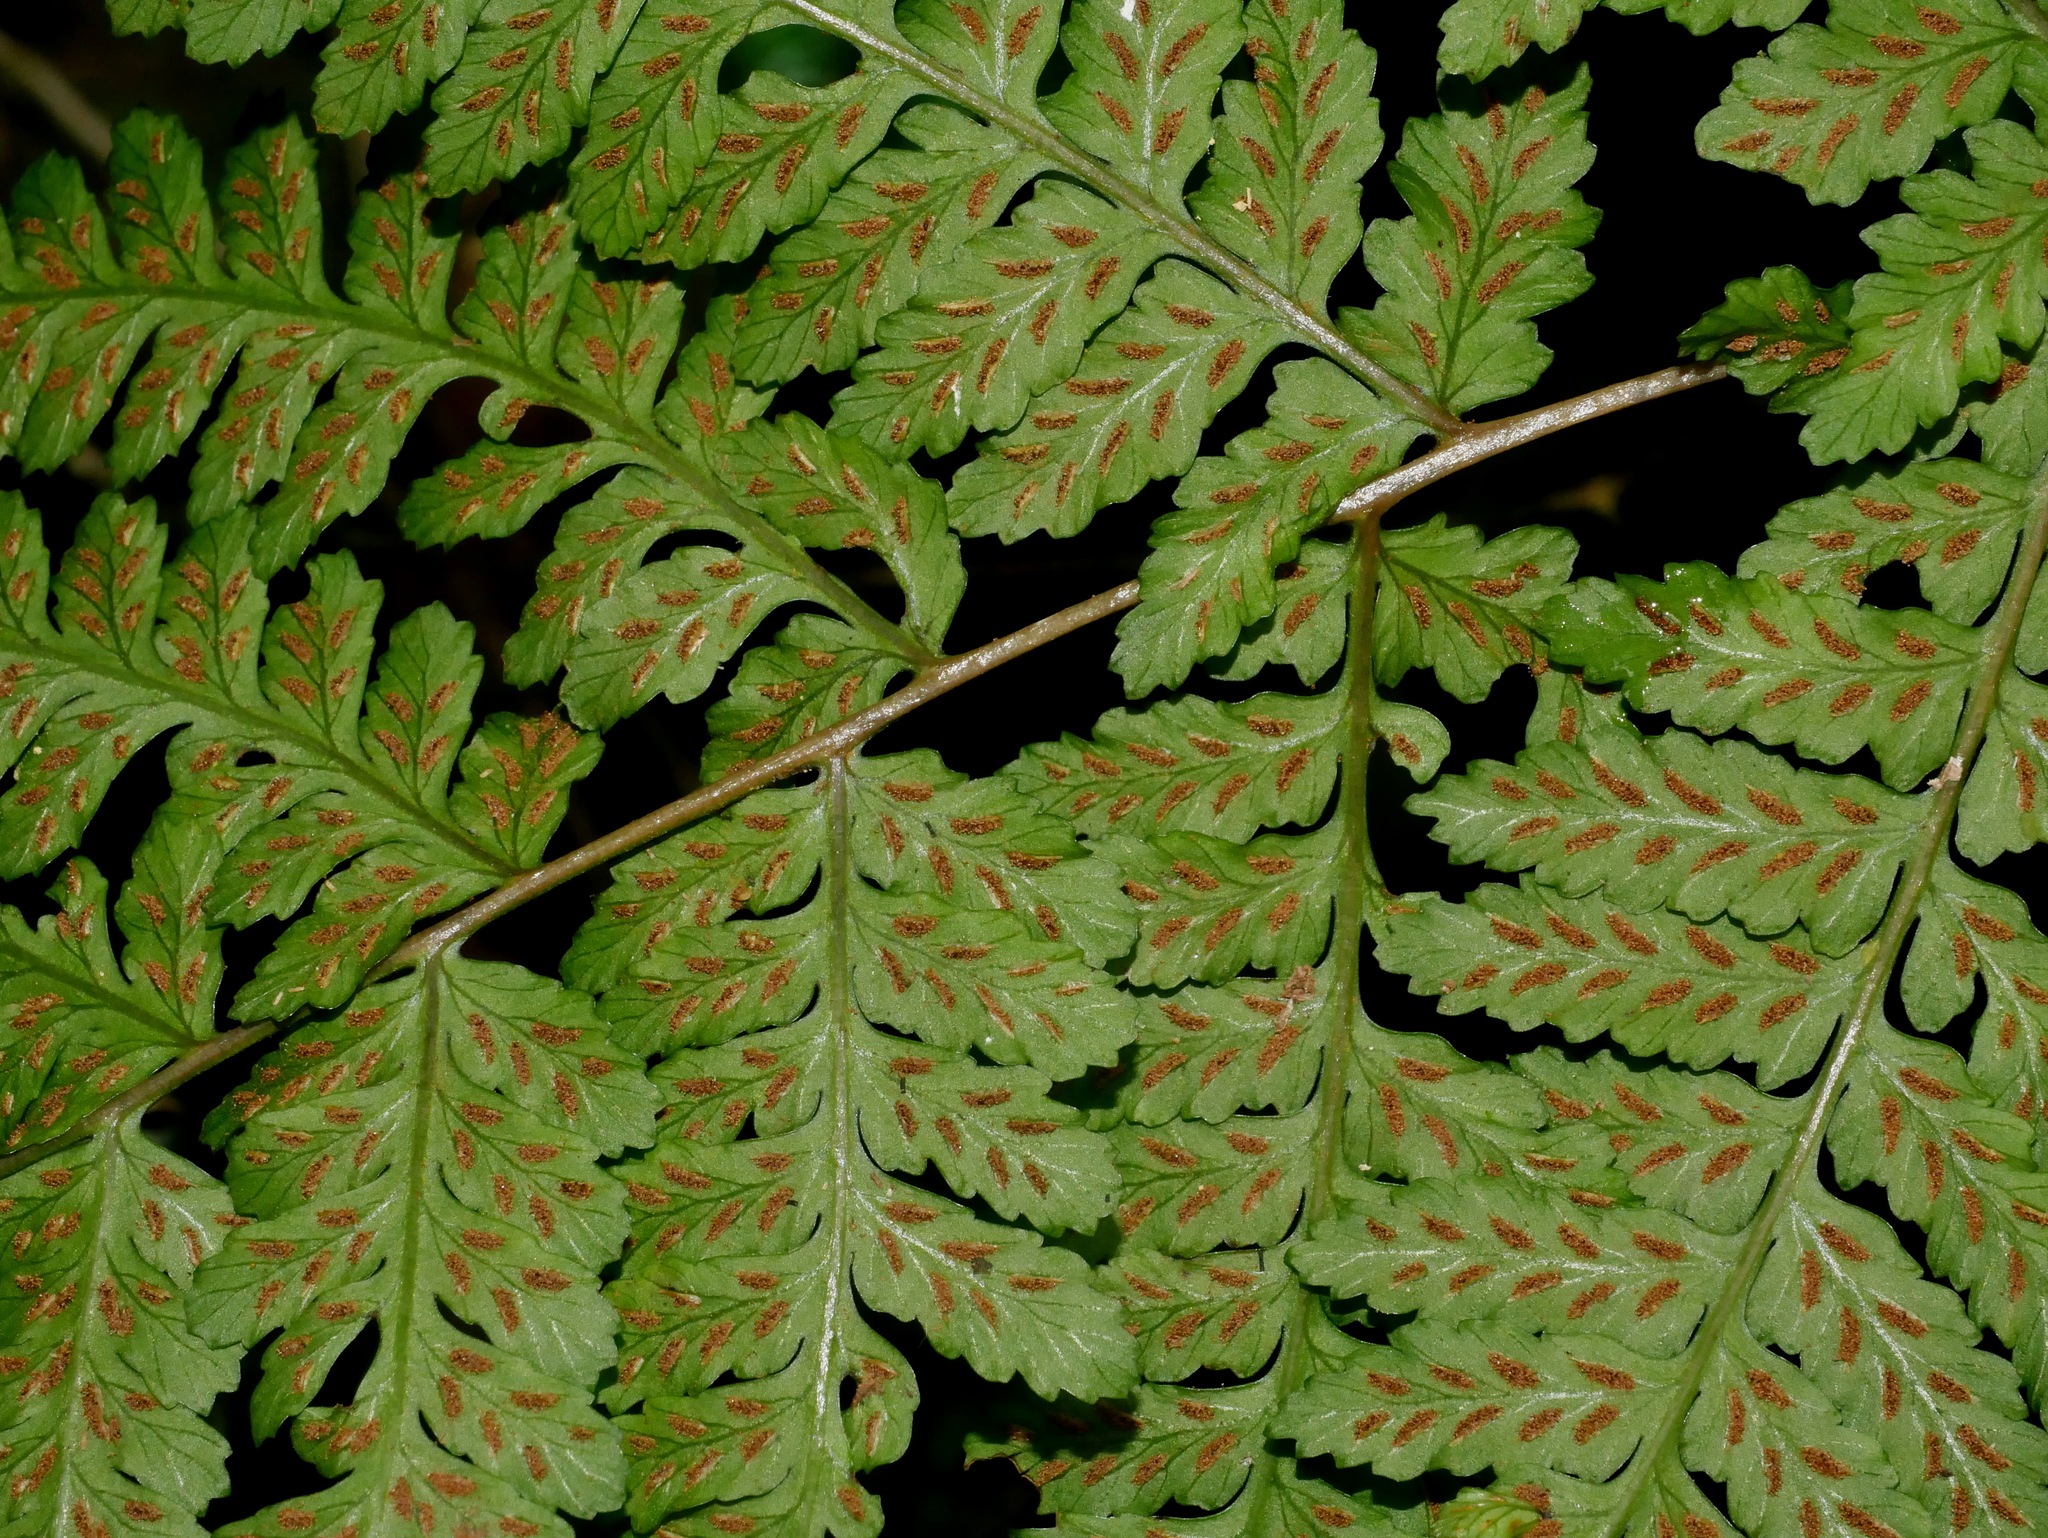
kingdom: Plantae
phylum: Tracheophyta
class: Polypodiopsida
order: Polypodiales
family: Athyriaceae
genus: Athyrium
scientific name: Athyrium arisanense
